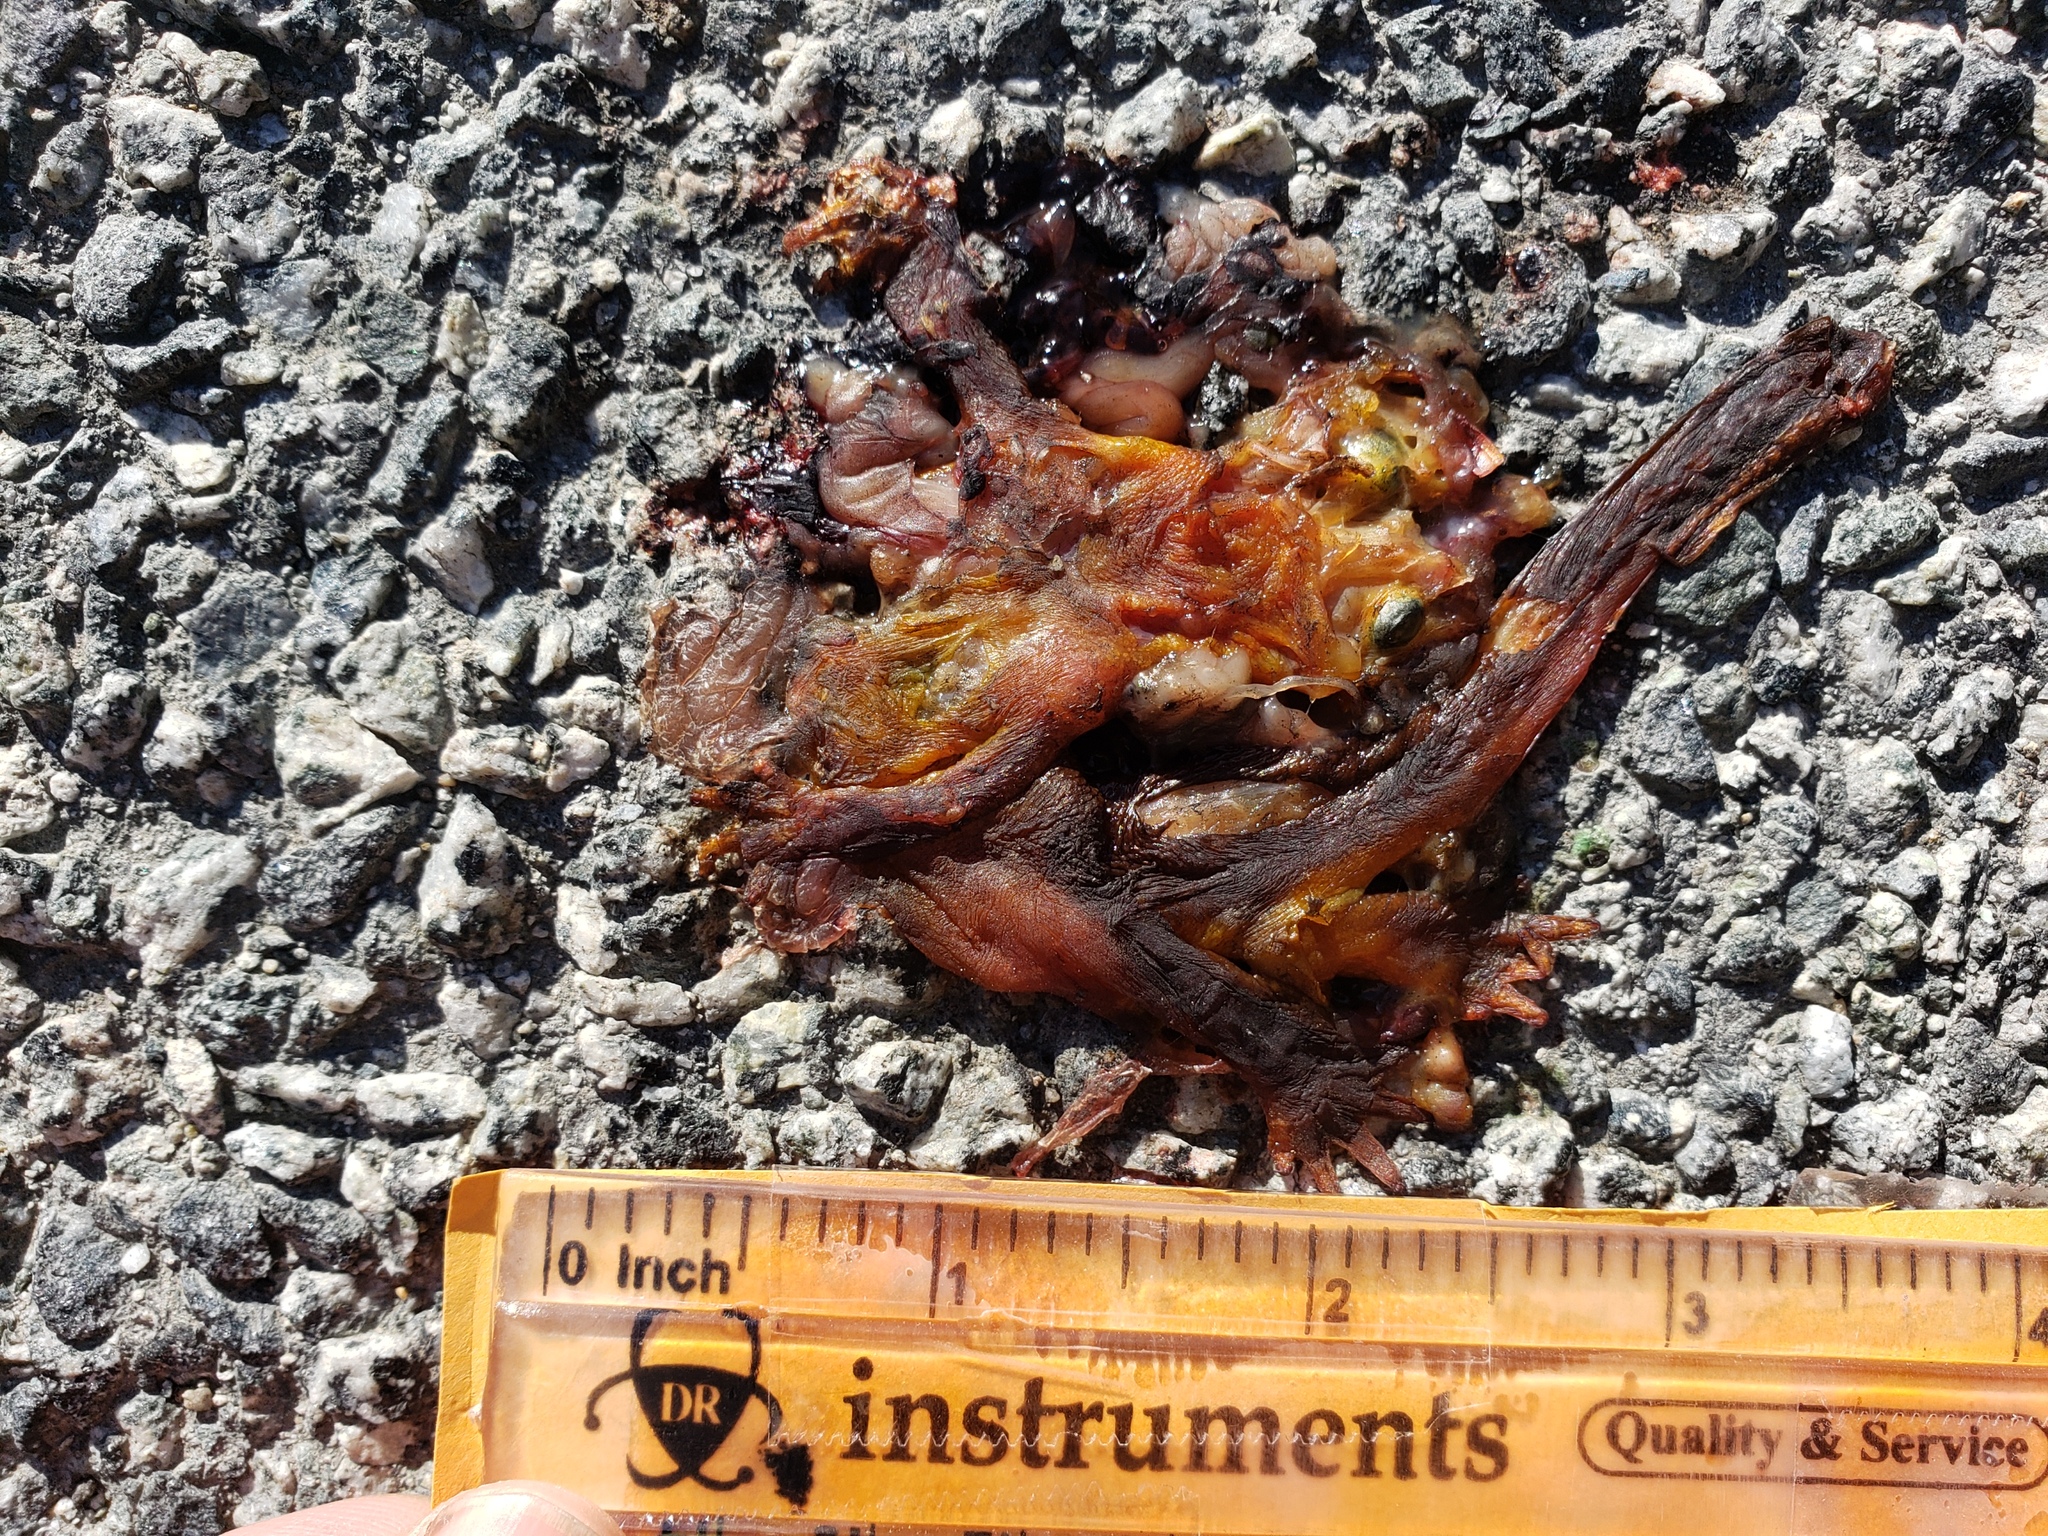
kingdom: Animalia
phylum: Chordata
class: Amphibia
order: Caudata
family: Salamandridae
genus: Taricha
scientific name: Taricha
